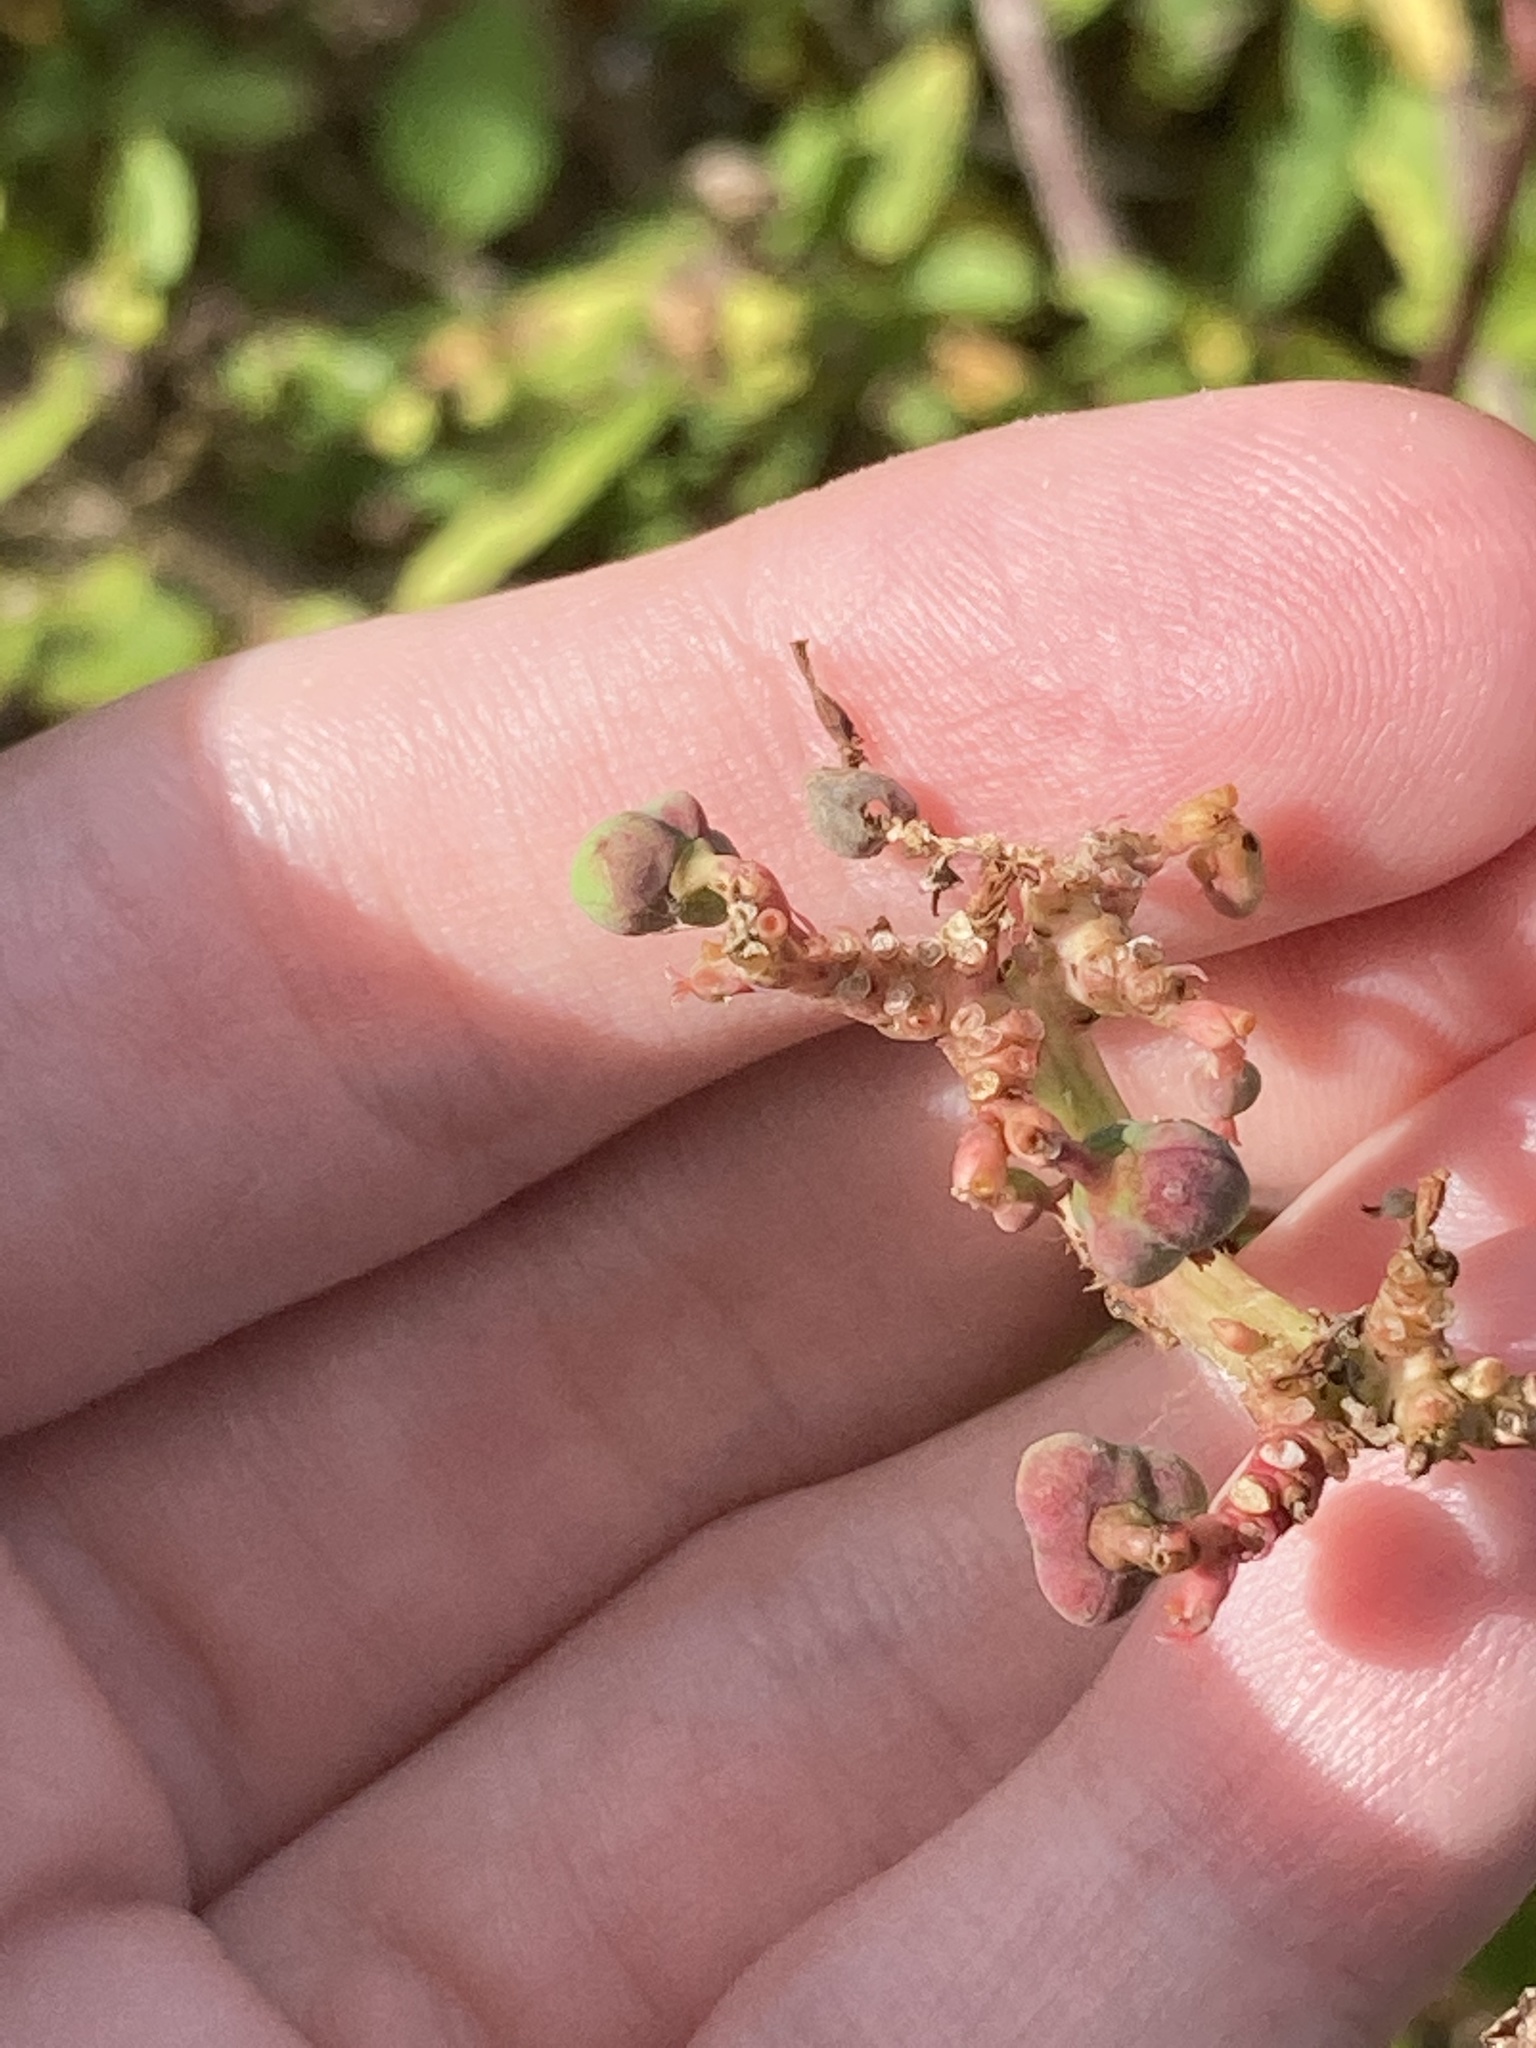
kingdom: Plantae
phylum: Tracheophyta
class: Magnoliopsida
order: Malpighiales
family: Euphorbiaceae
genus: Euphorbia
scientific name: Euphorbia heterophylla
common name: Mexican fireplant
